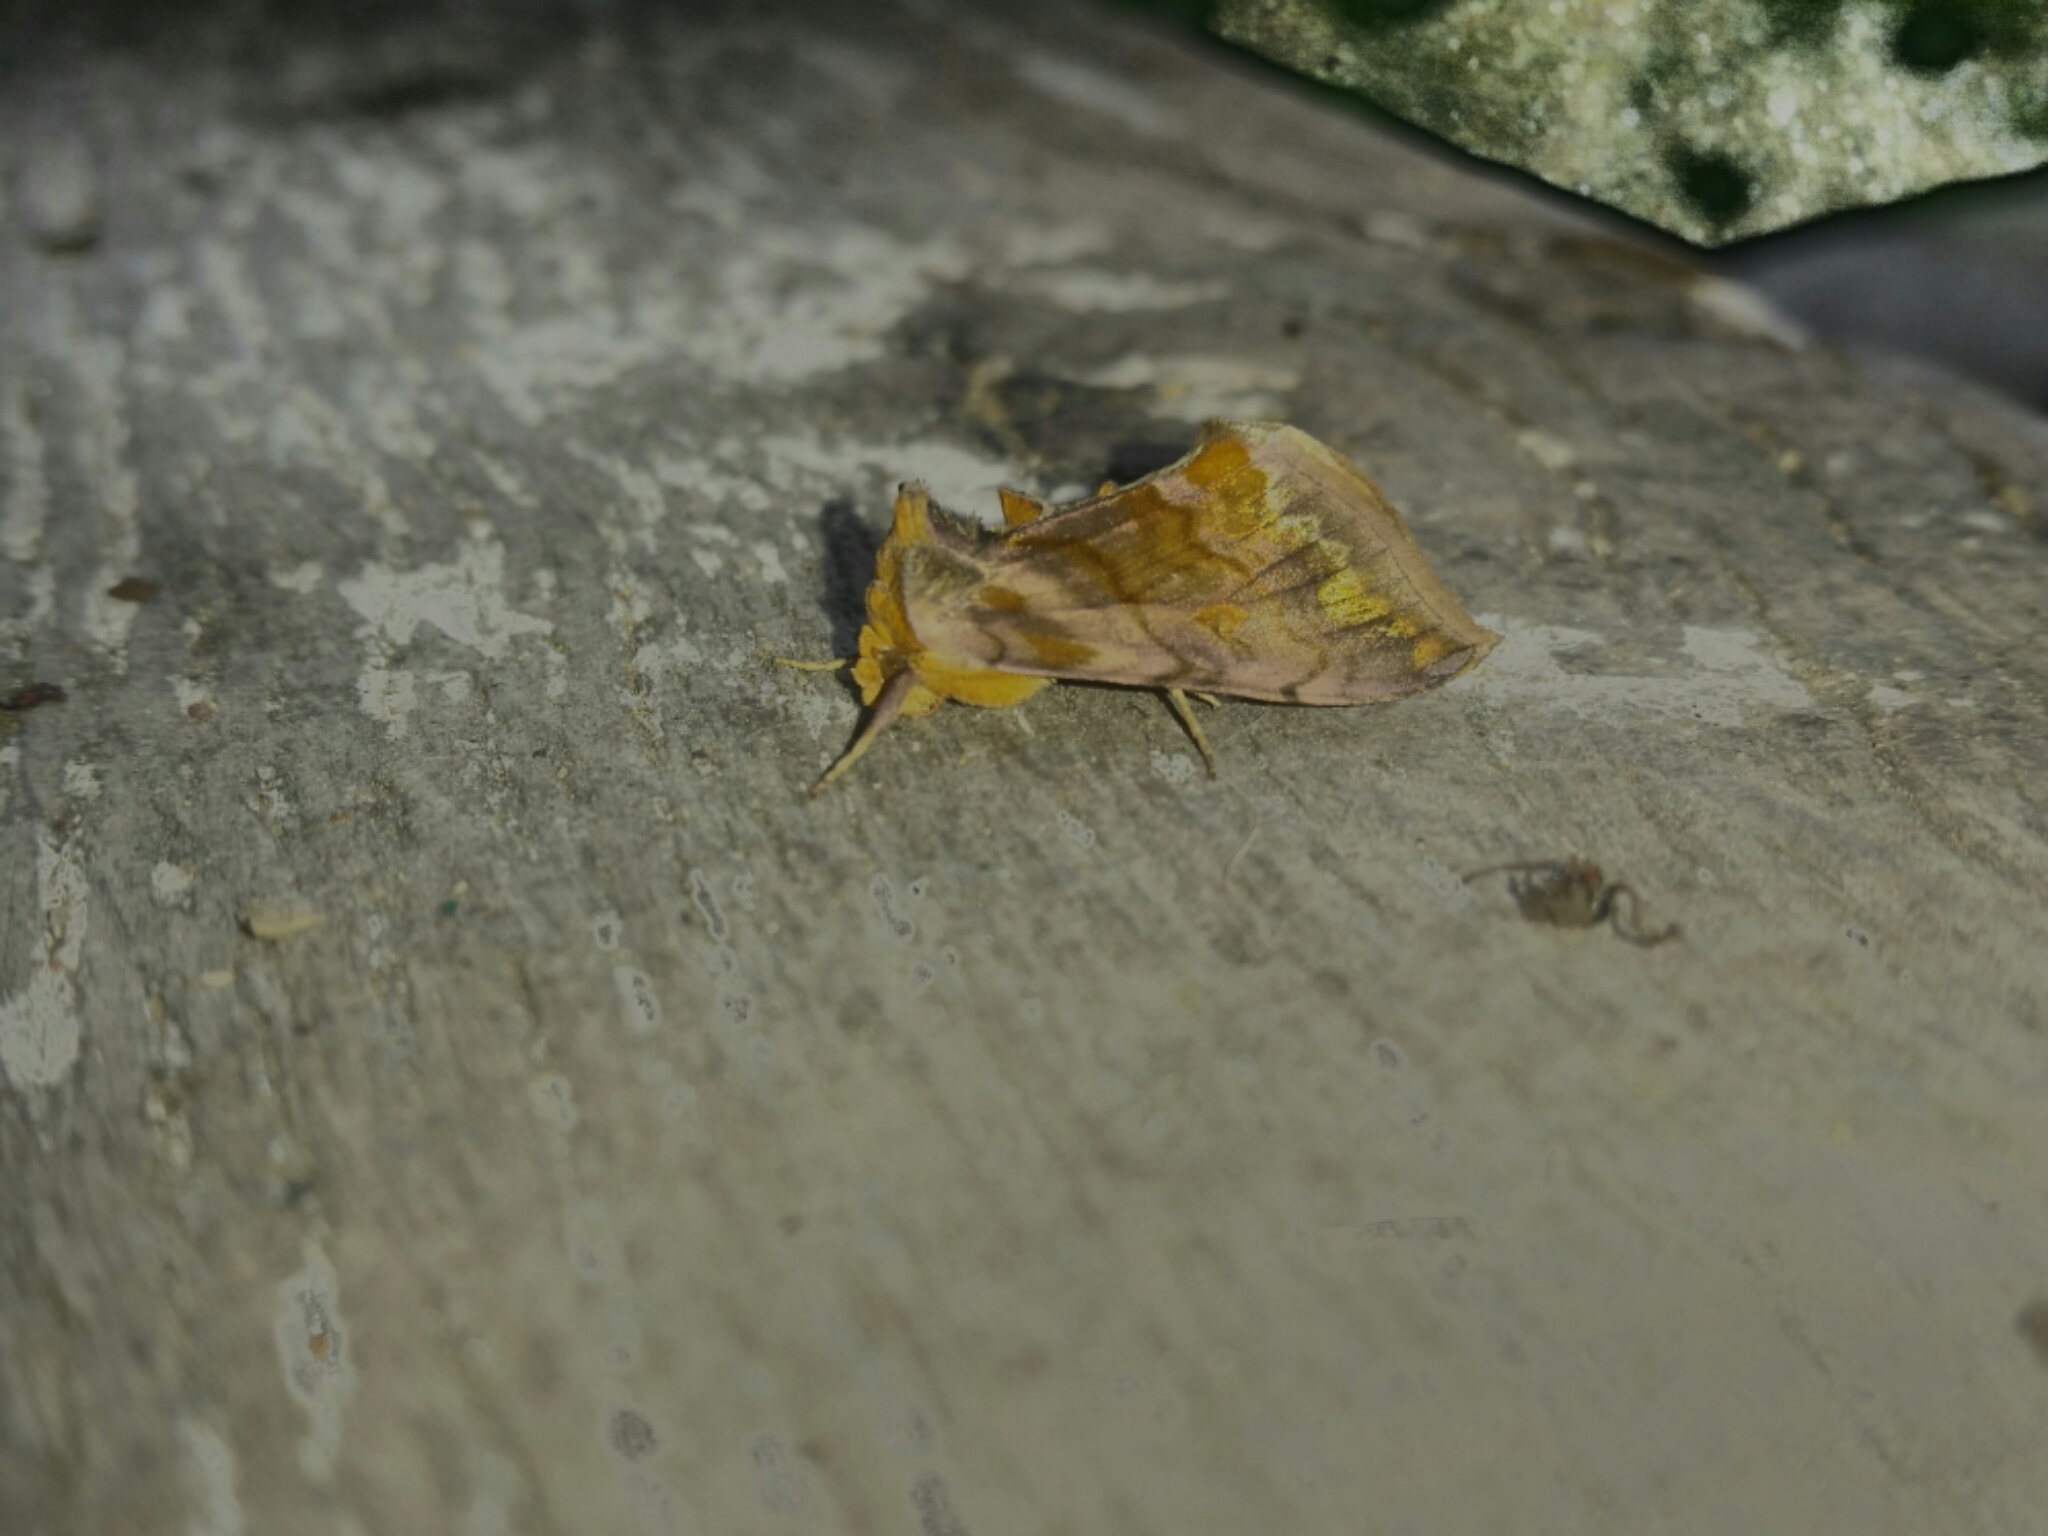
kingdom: Animalia
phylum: Arthropoda
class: Insecta
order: Lepidoptera
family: Noctuidae
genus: Allagrapha
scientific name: Allagrapha aerea
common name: Unspotted looper moth
